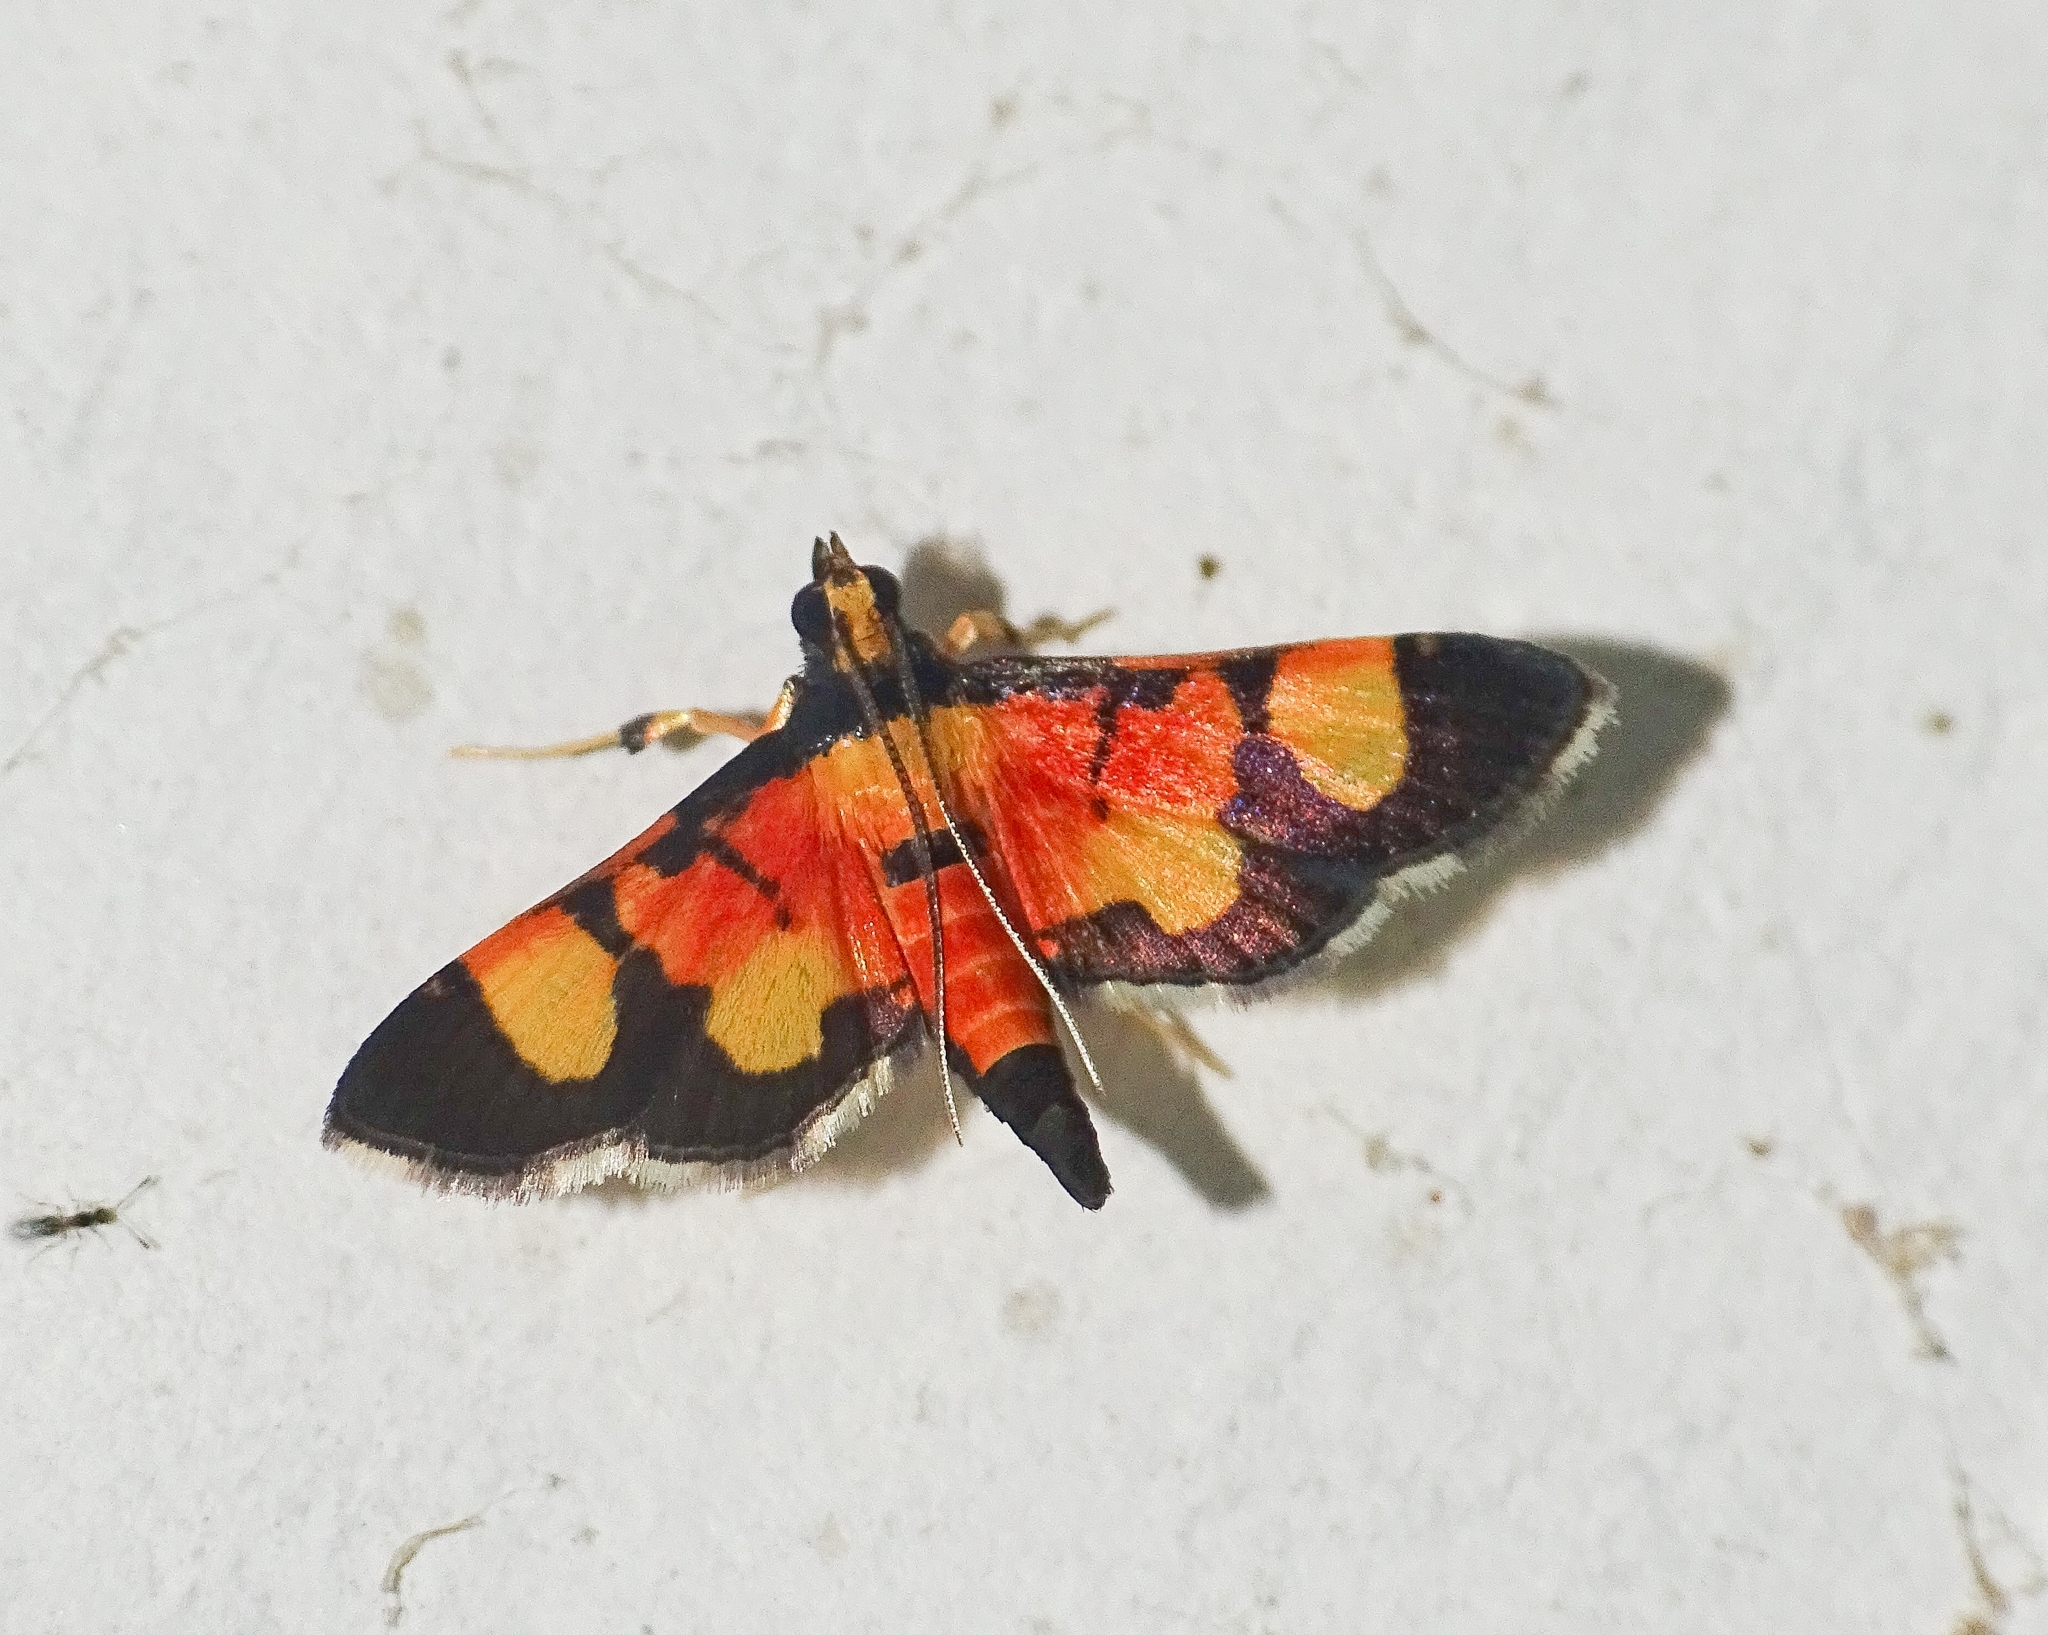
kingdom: Animalia
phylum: Arthropoda
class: Insecta
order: Lepidoptera
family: Crambidae
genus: Aethaloessa
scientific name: Aethaloessa calidalis
